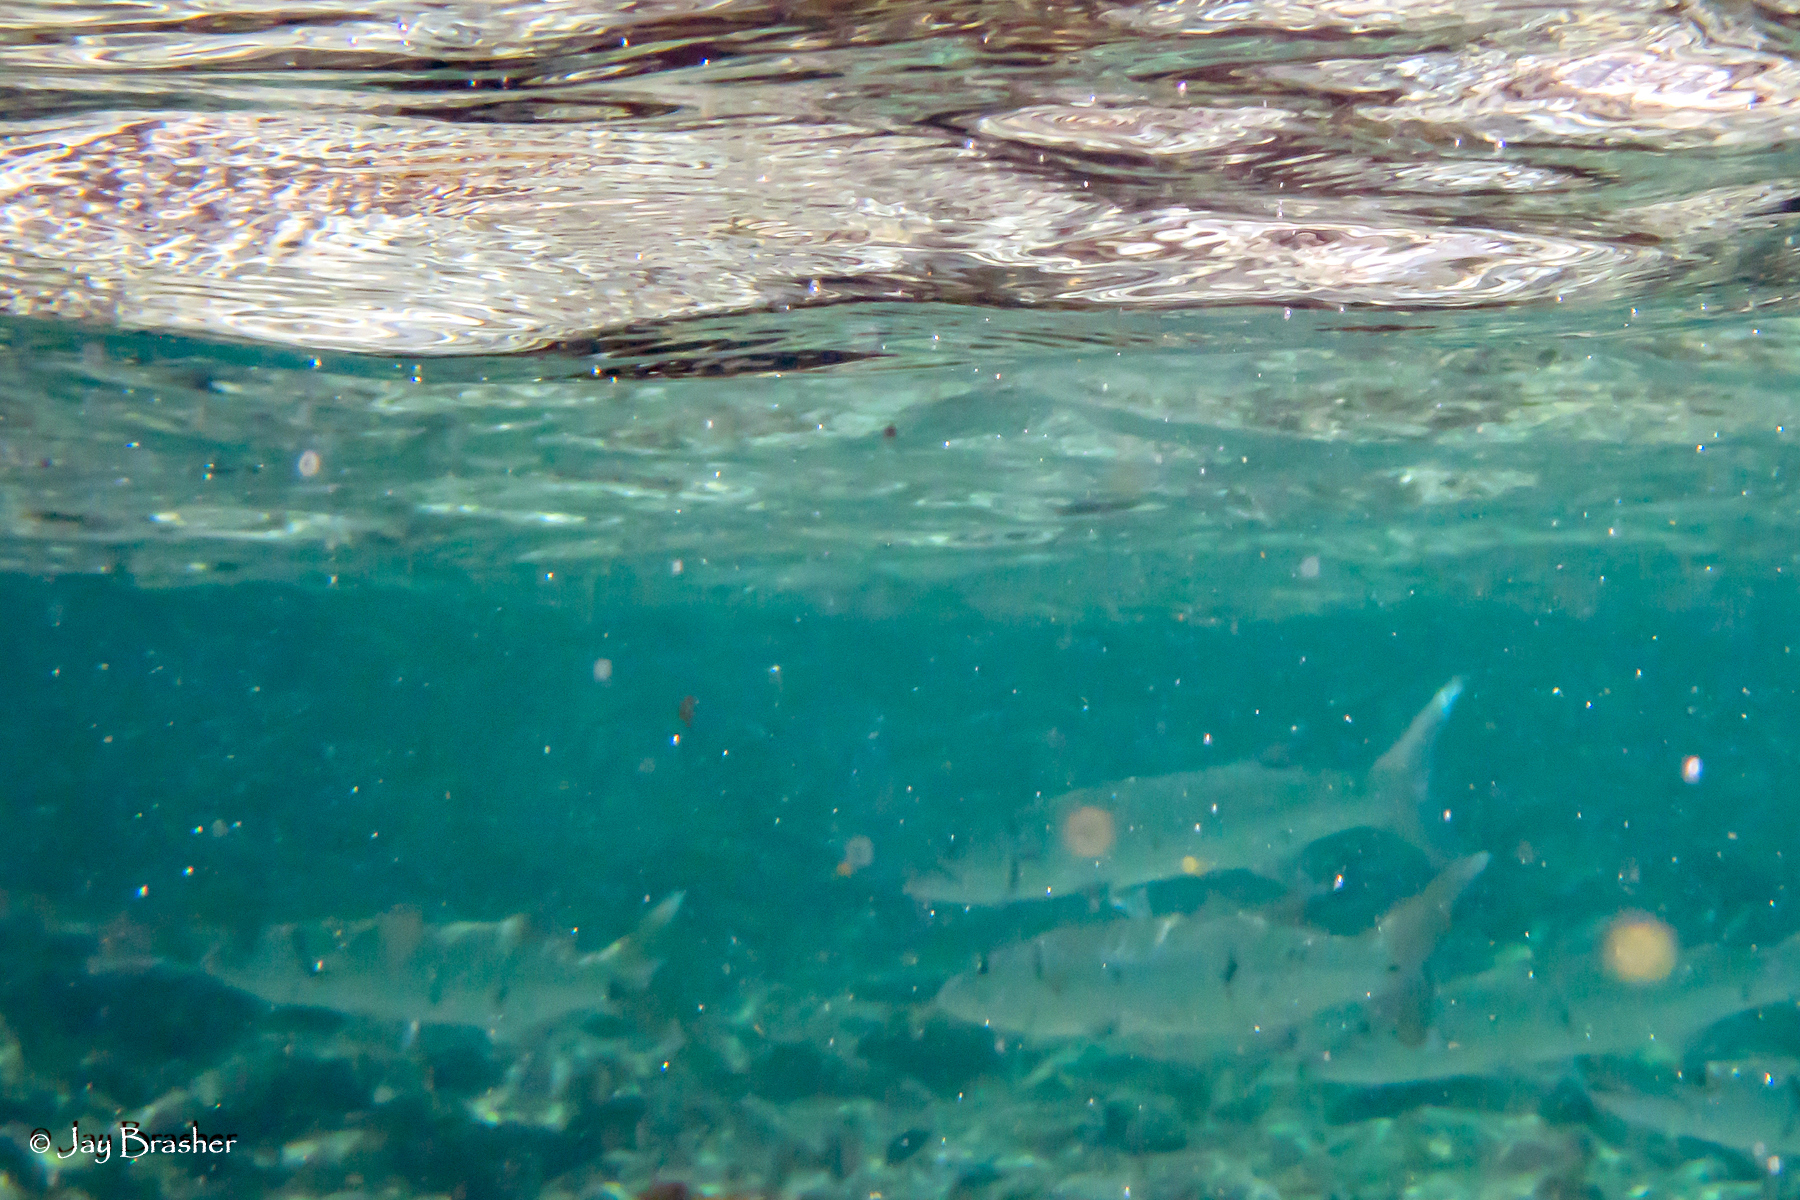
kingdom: Animalia
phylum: Chordata
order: Perciformes
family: Sphyraenidae
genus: Sphyraena
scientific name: Sphyraena barracuda
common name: Great barracuda
